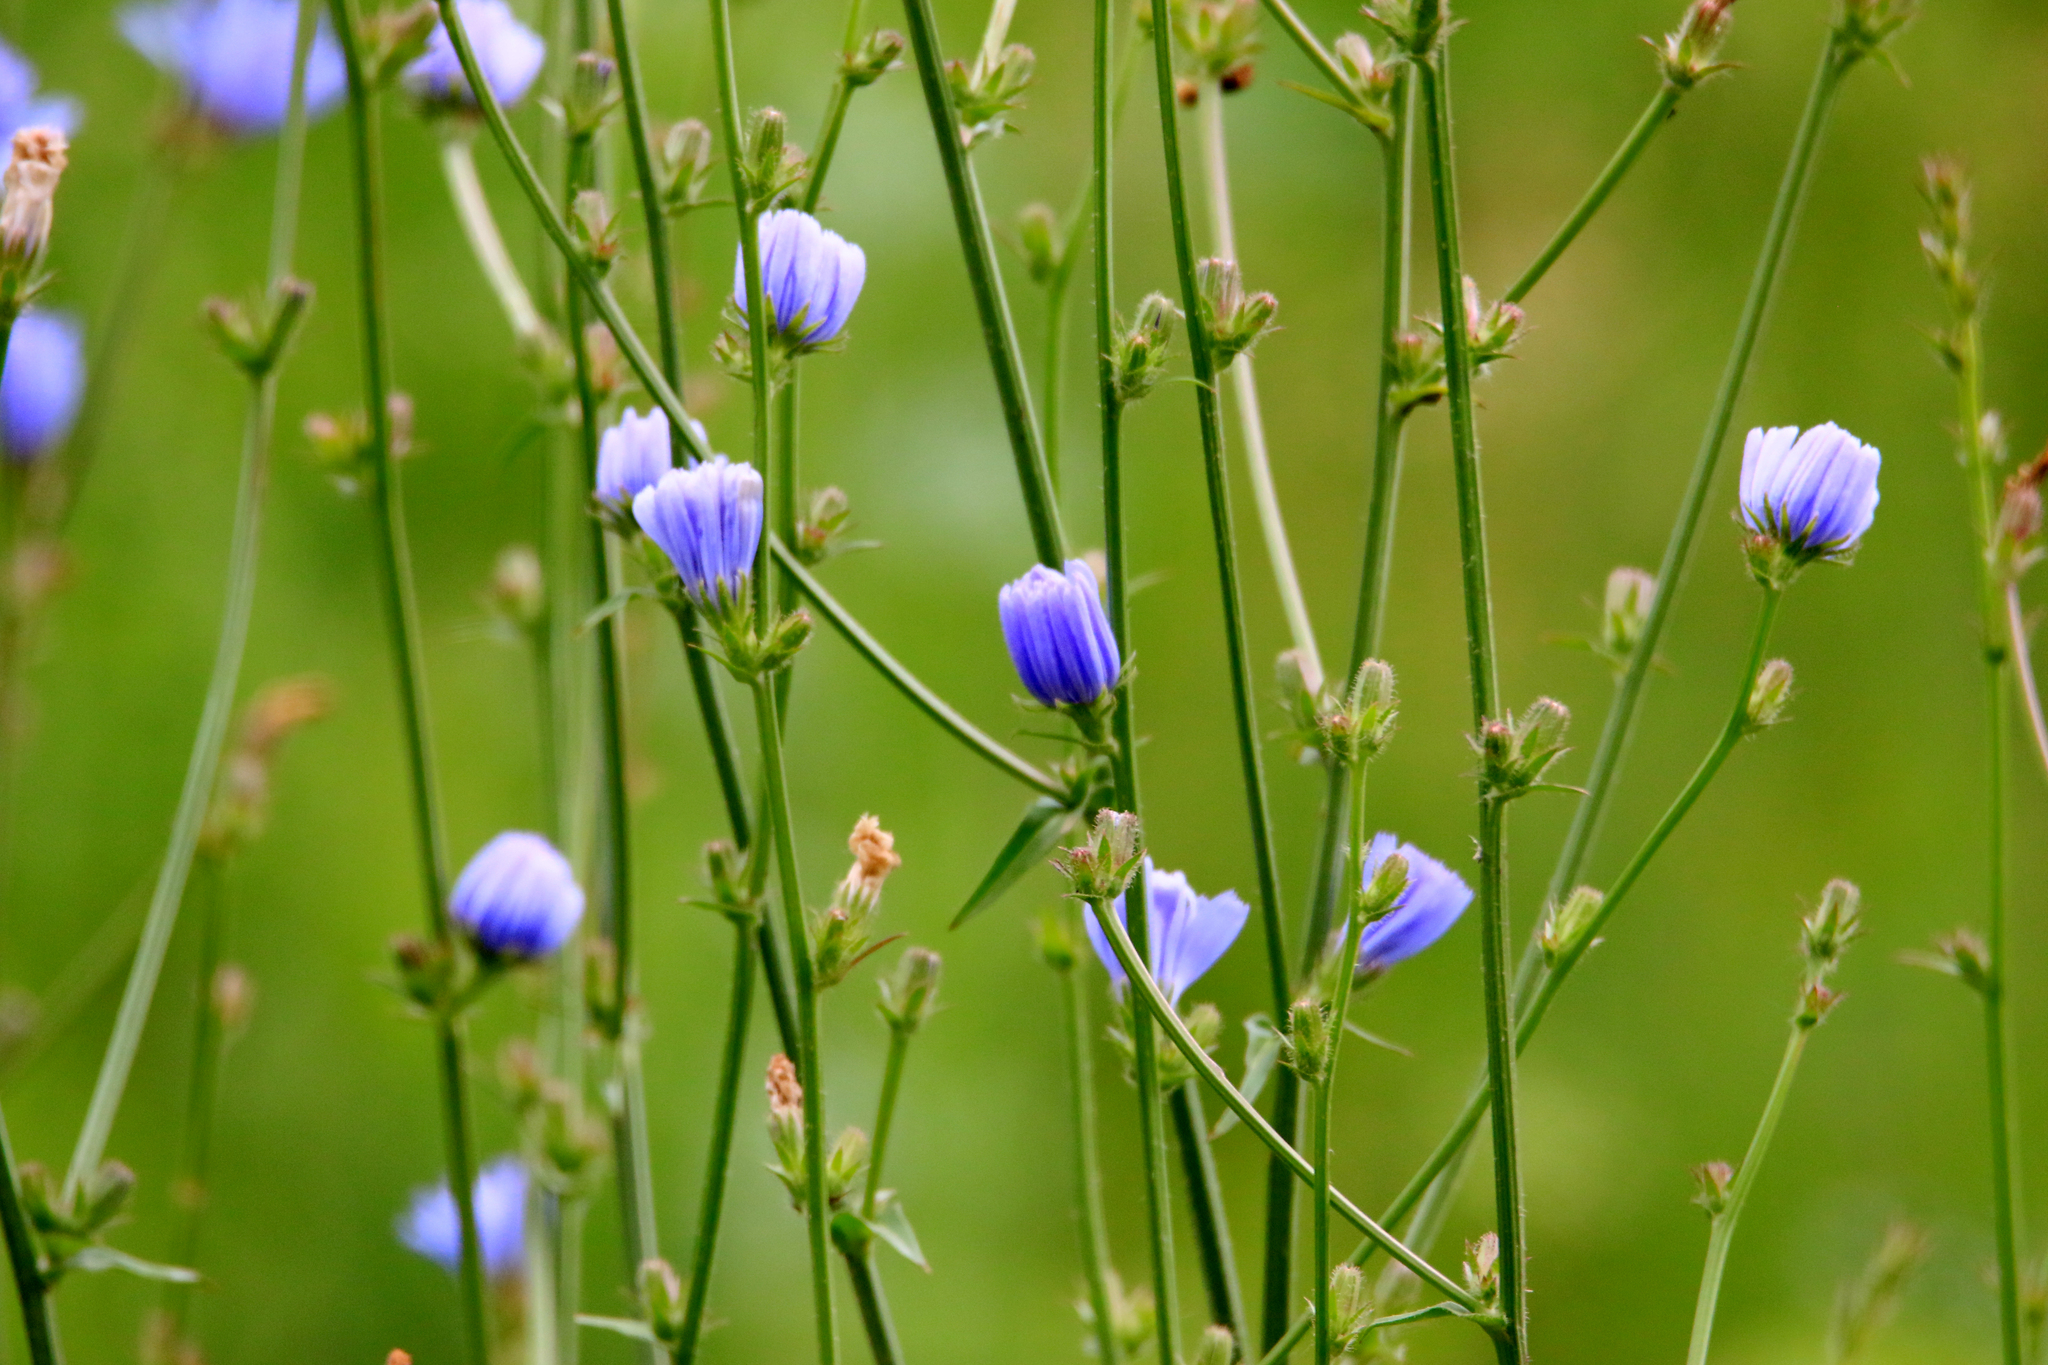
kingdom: Plantae
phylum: Tracheophyta
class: Magnoliopsida
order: Asterales
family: Asteraceae
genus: Cichorium
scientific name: Cichorium intybus
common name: Chicory
